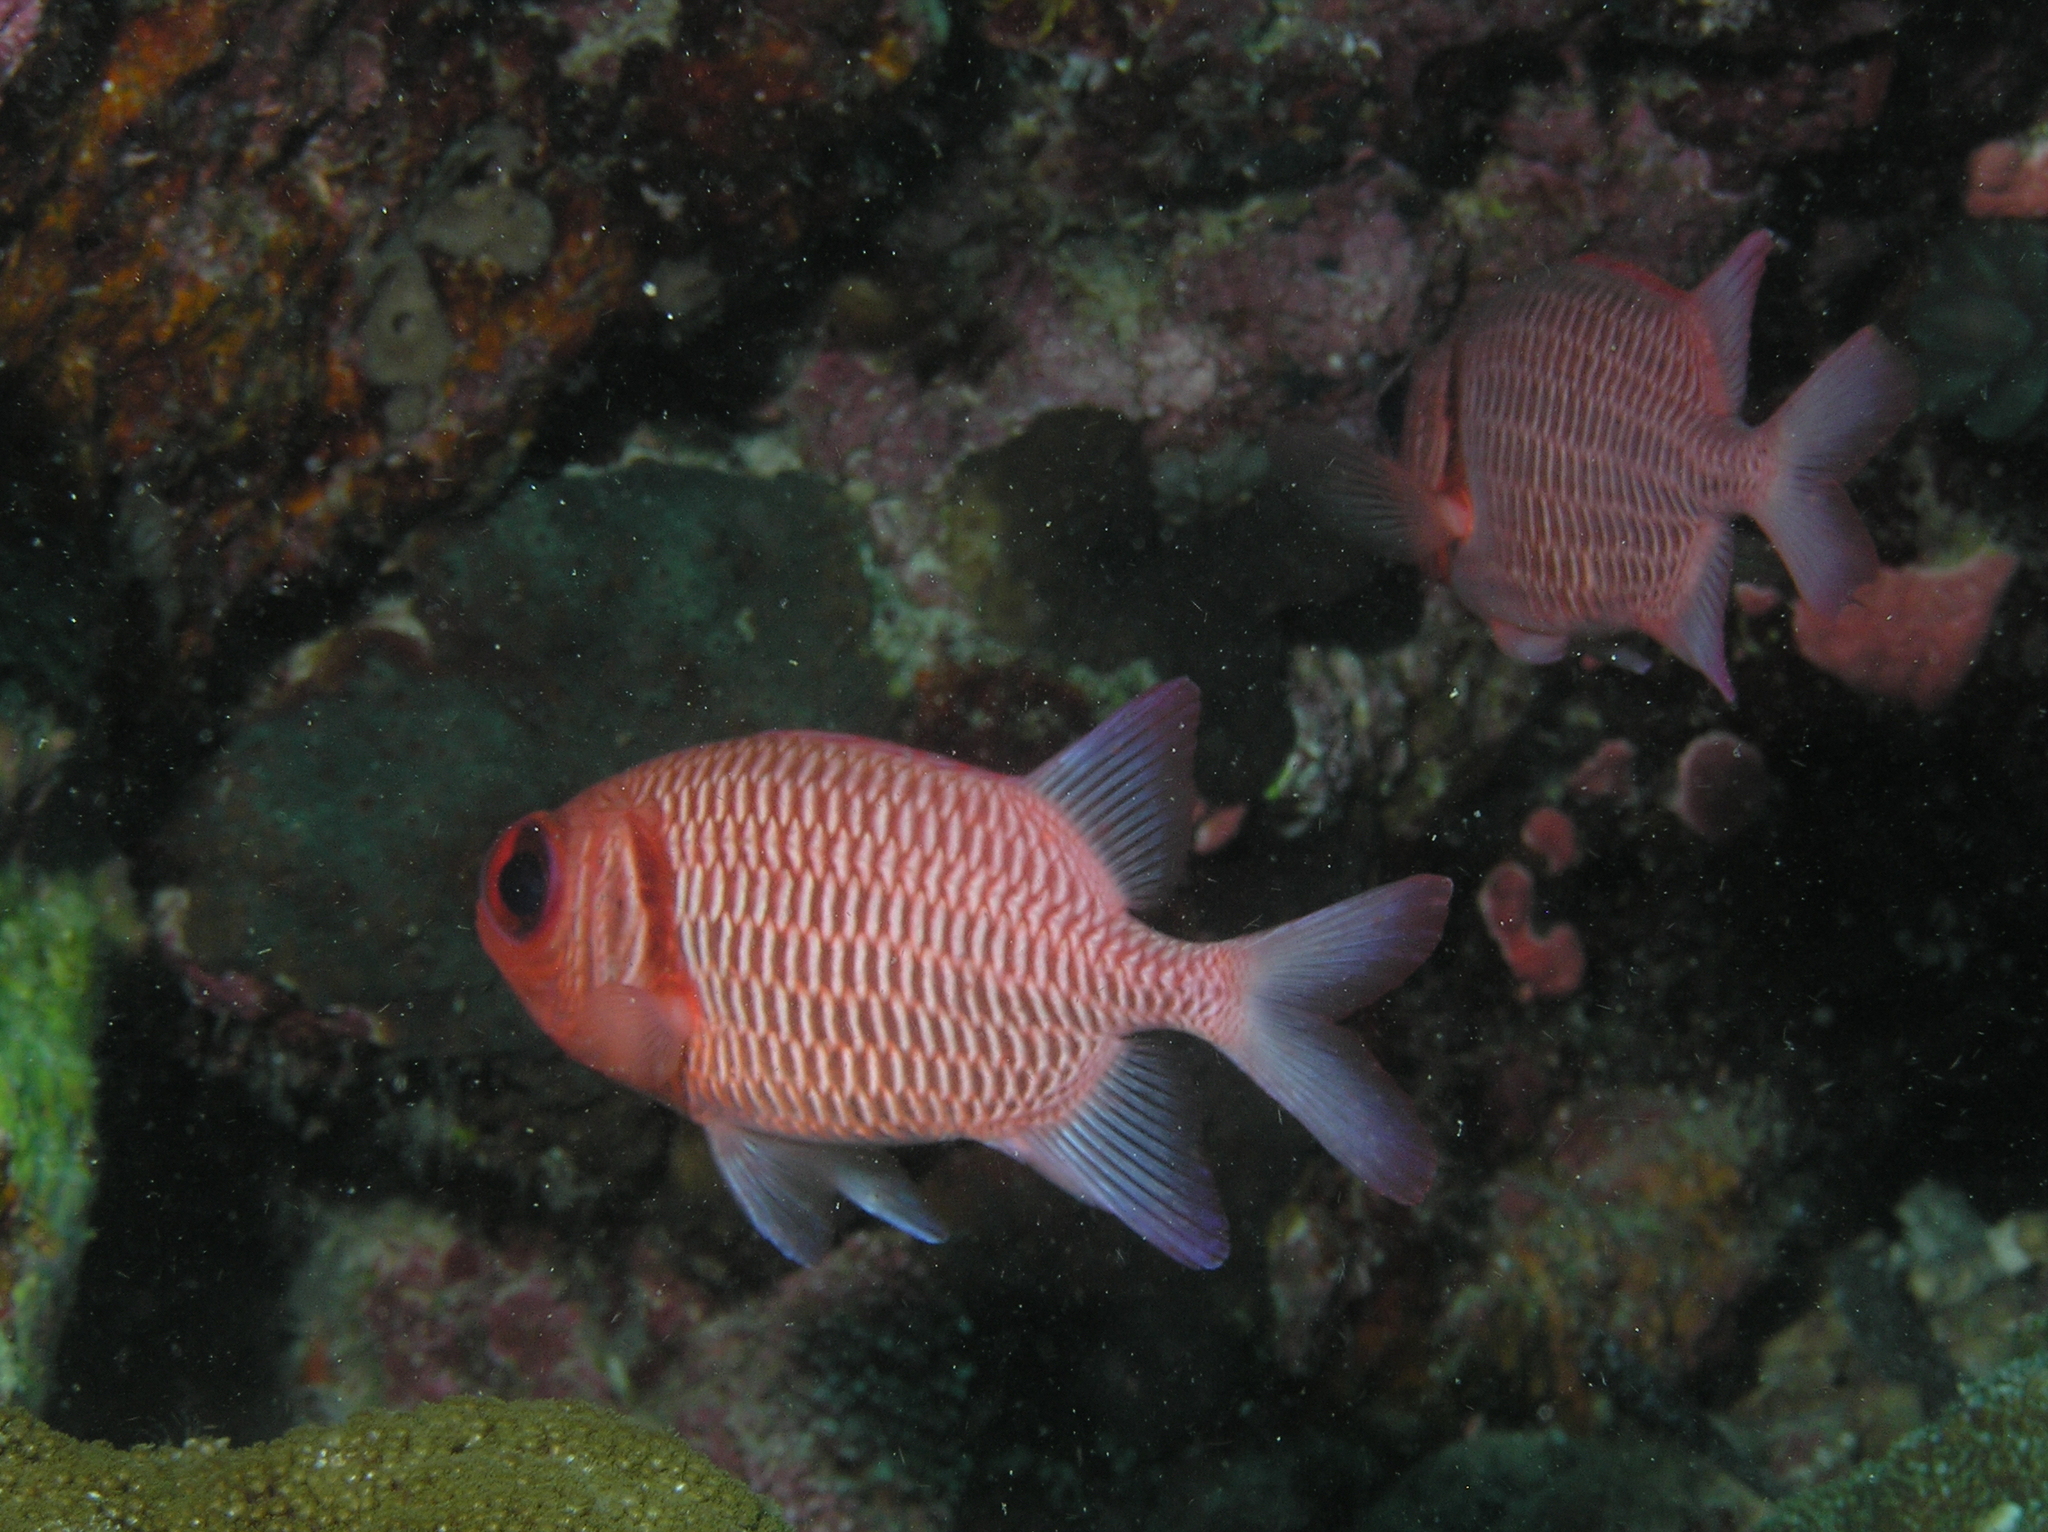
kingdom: Animalia
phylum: Chordata
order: Beryciformes
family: Holocentridae
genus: Myripristis
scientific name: Myripristis hexagona
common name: Blacktip soldierfish
